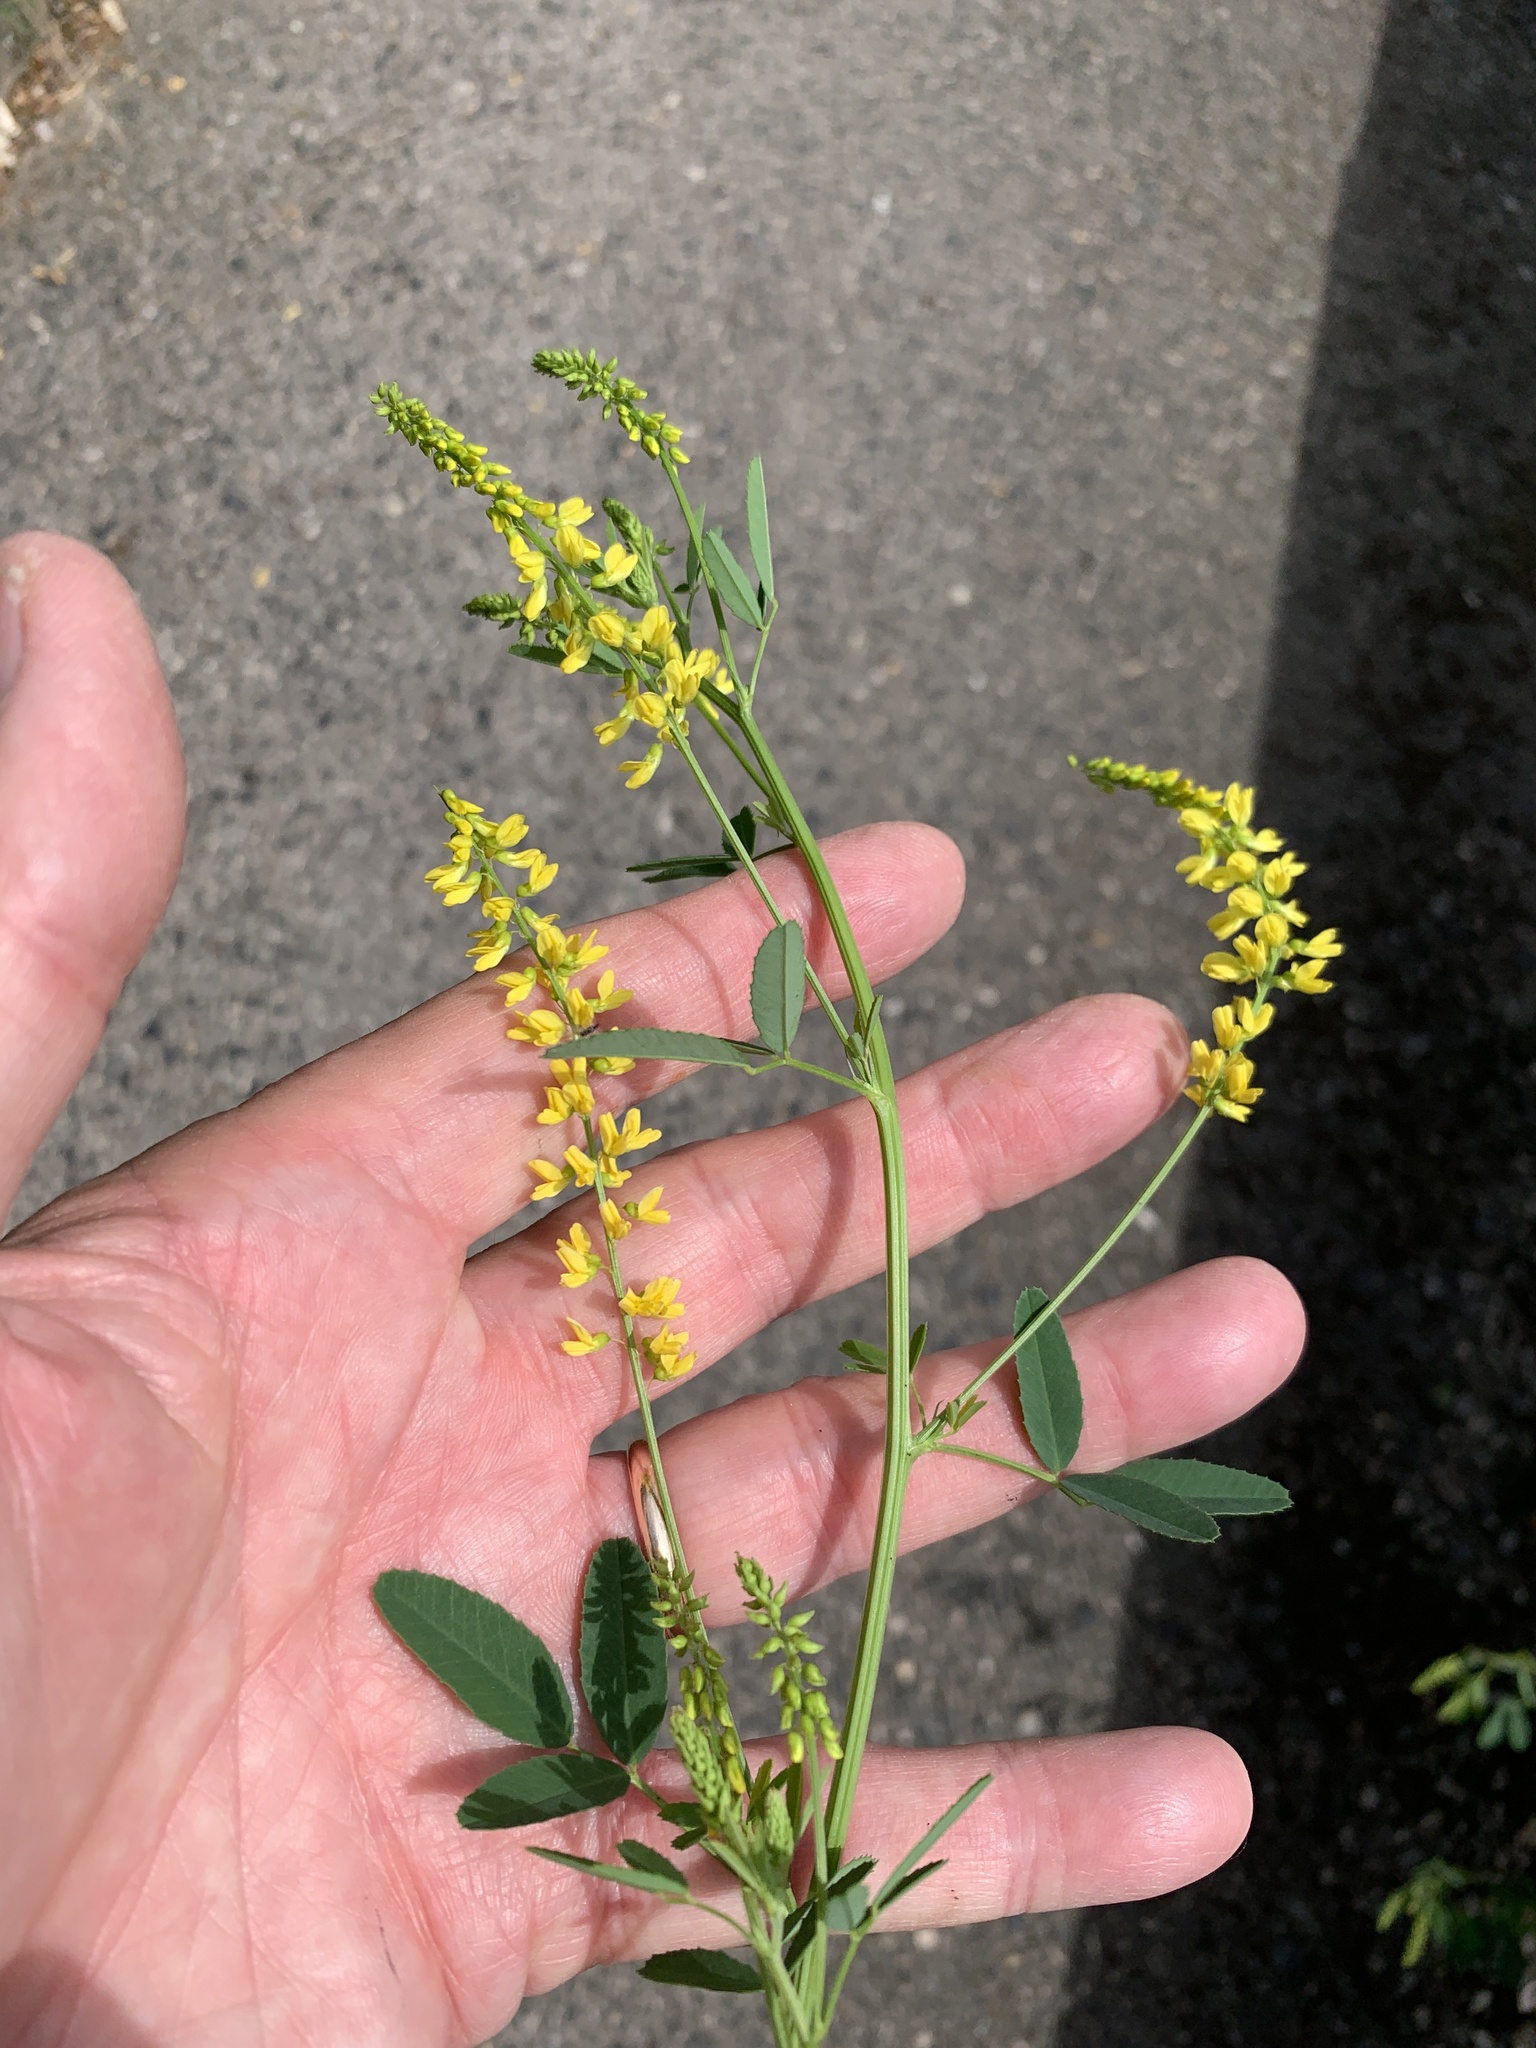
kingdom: Plantae
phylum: Tracheophyta
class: Magnoliopsida
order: Fabales
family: Fabaceae
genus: Melilotus
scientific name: Melilotus officinalis
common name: Sweetclover
